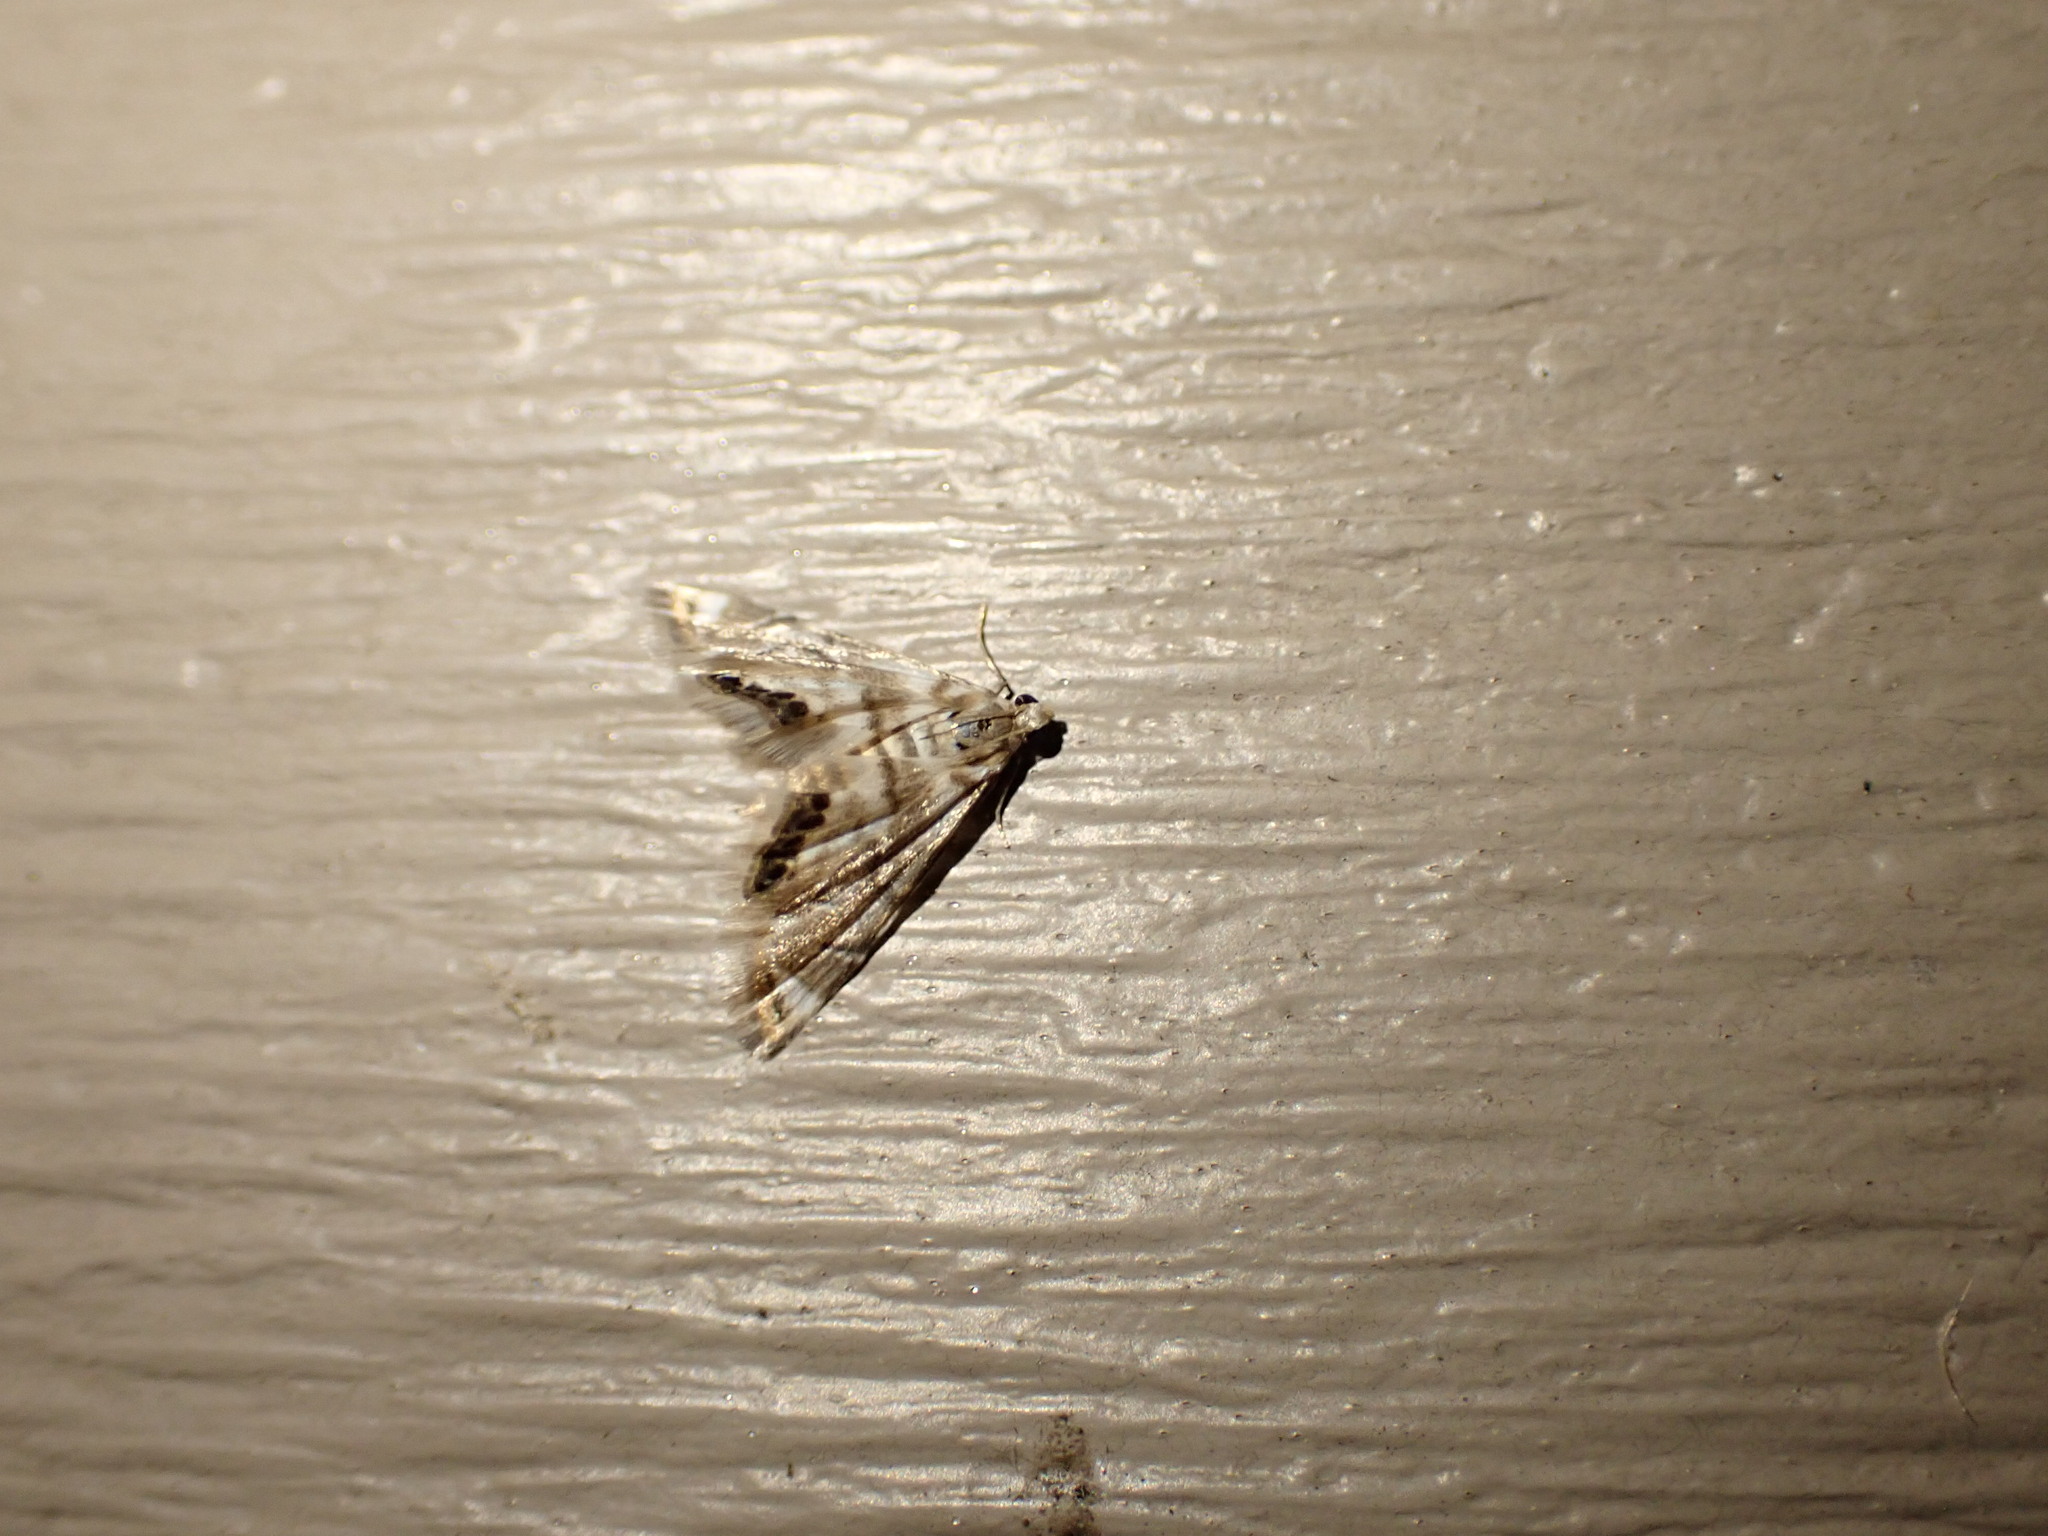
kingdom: Animalia
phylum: Arthropoda
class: Insecta
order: Lepidoptera
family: Crambidae
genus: Eoparargyractis
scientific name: Eoparargyractis plevie
